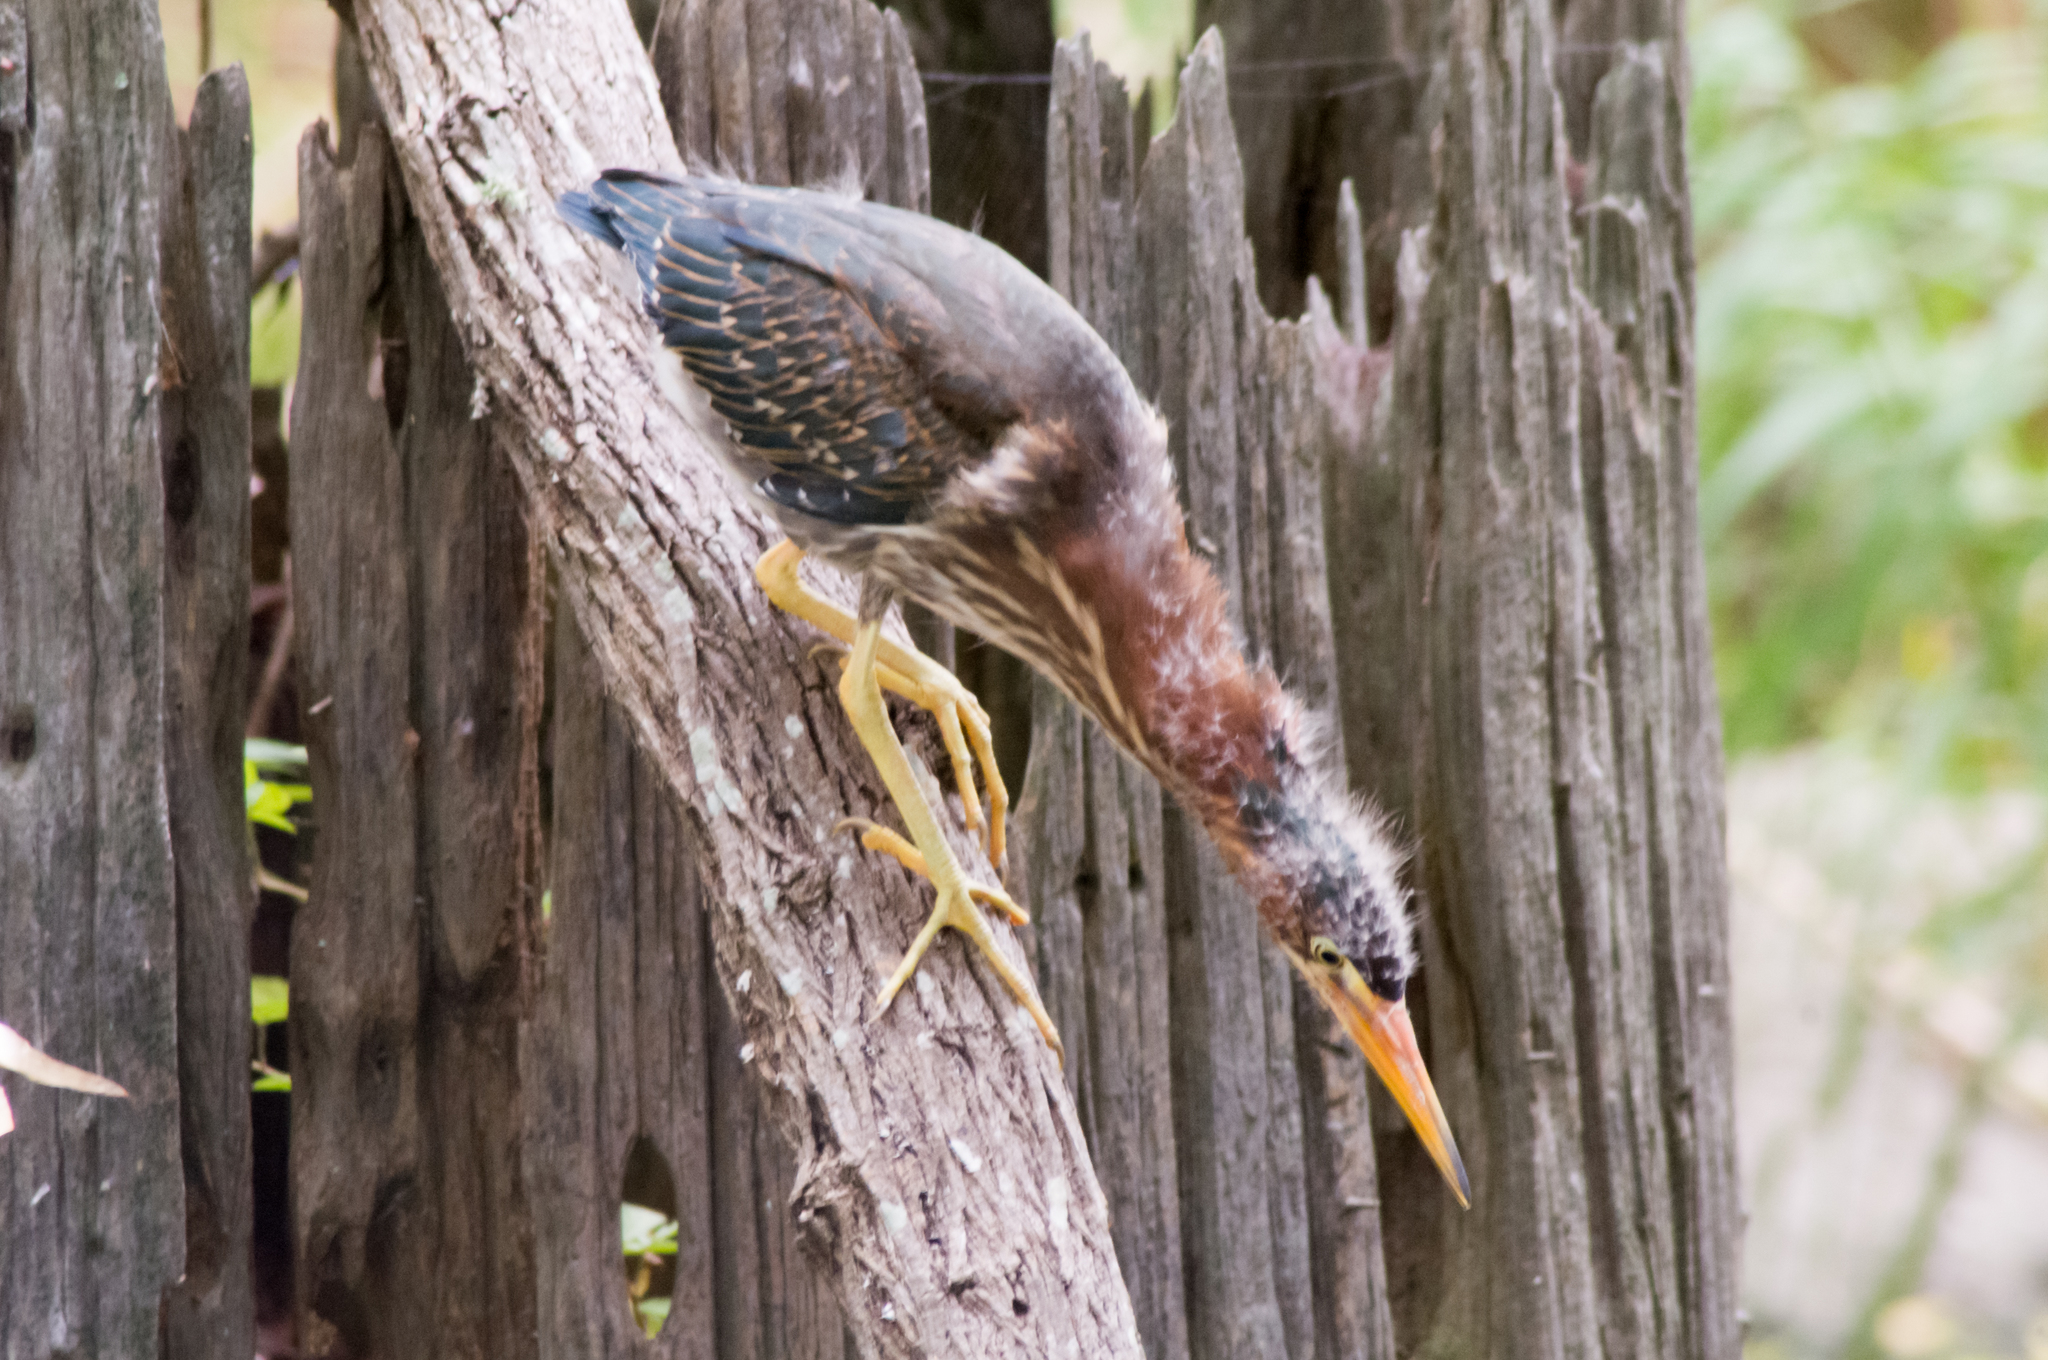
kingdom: Animalia
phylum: Chordata
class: Aves
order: Pelecaniformes
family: Ardeidae
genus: Butorides
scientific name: Butorides virescens
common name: Green heron
